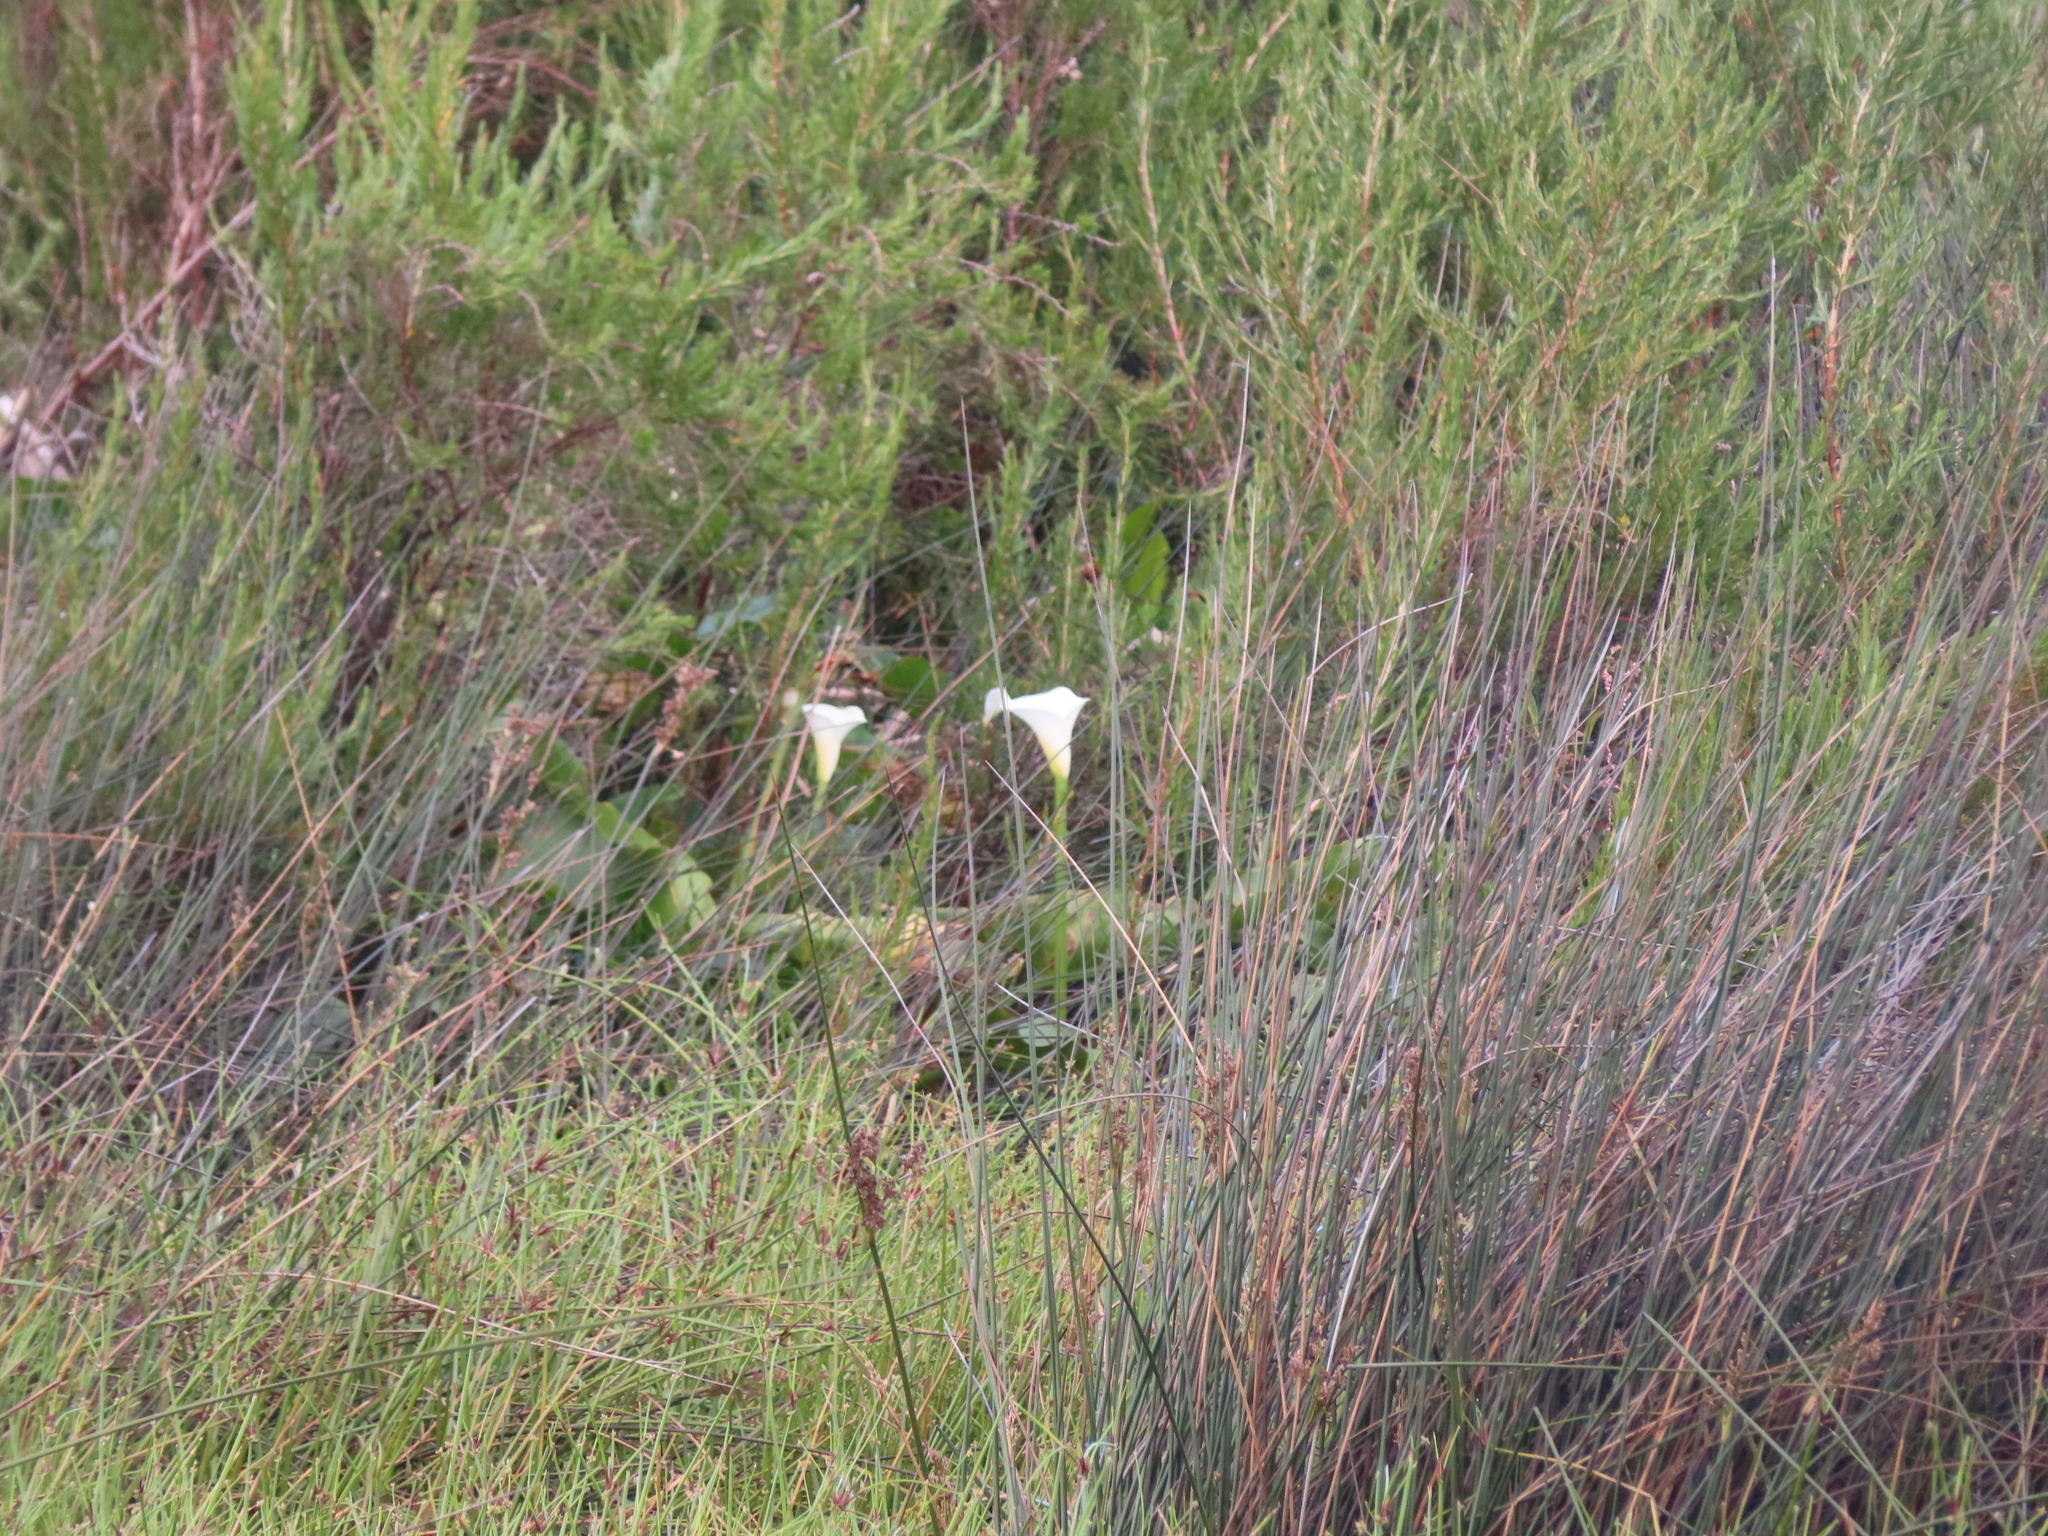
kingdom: Plantae
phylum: Tracheophyta
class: Liliopsida
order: Alismatales
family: Araceae
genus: Zantedeschia
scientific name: Zantedeschia aethiopica
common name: Altar-lily
